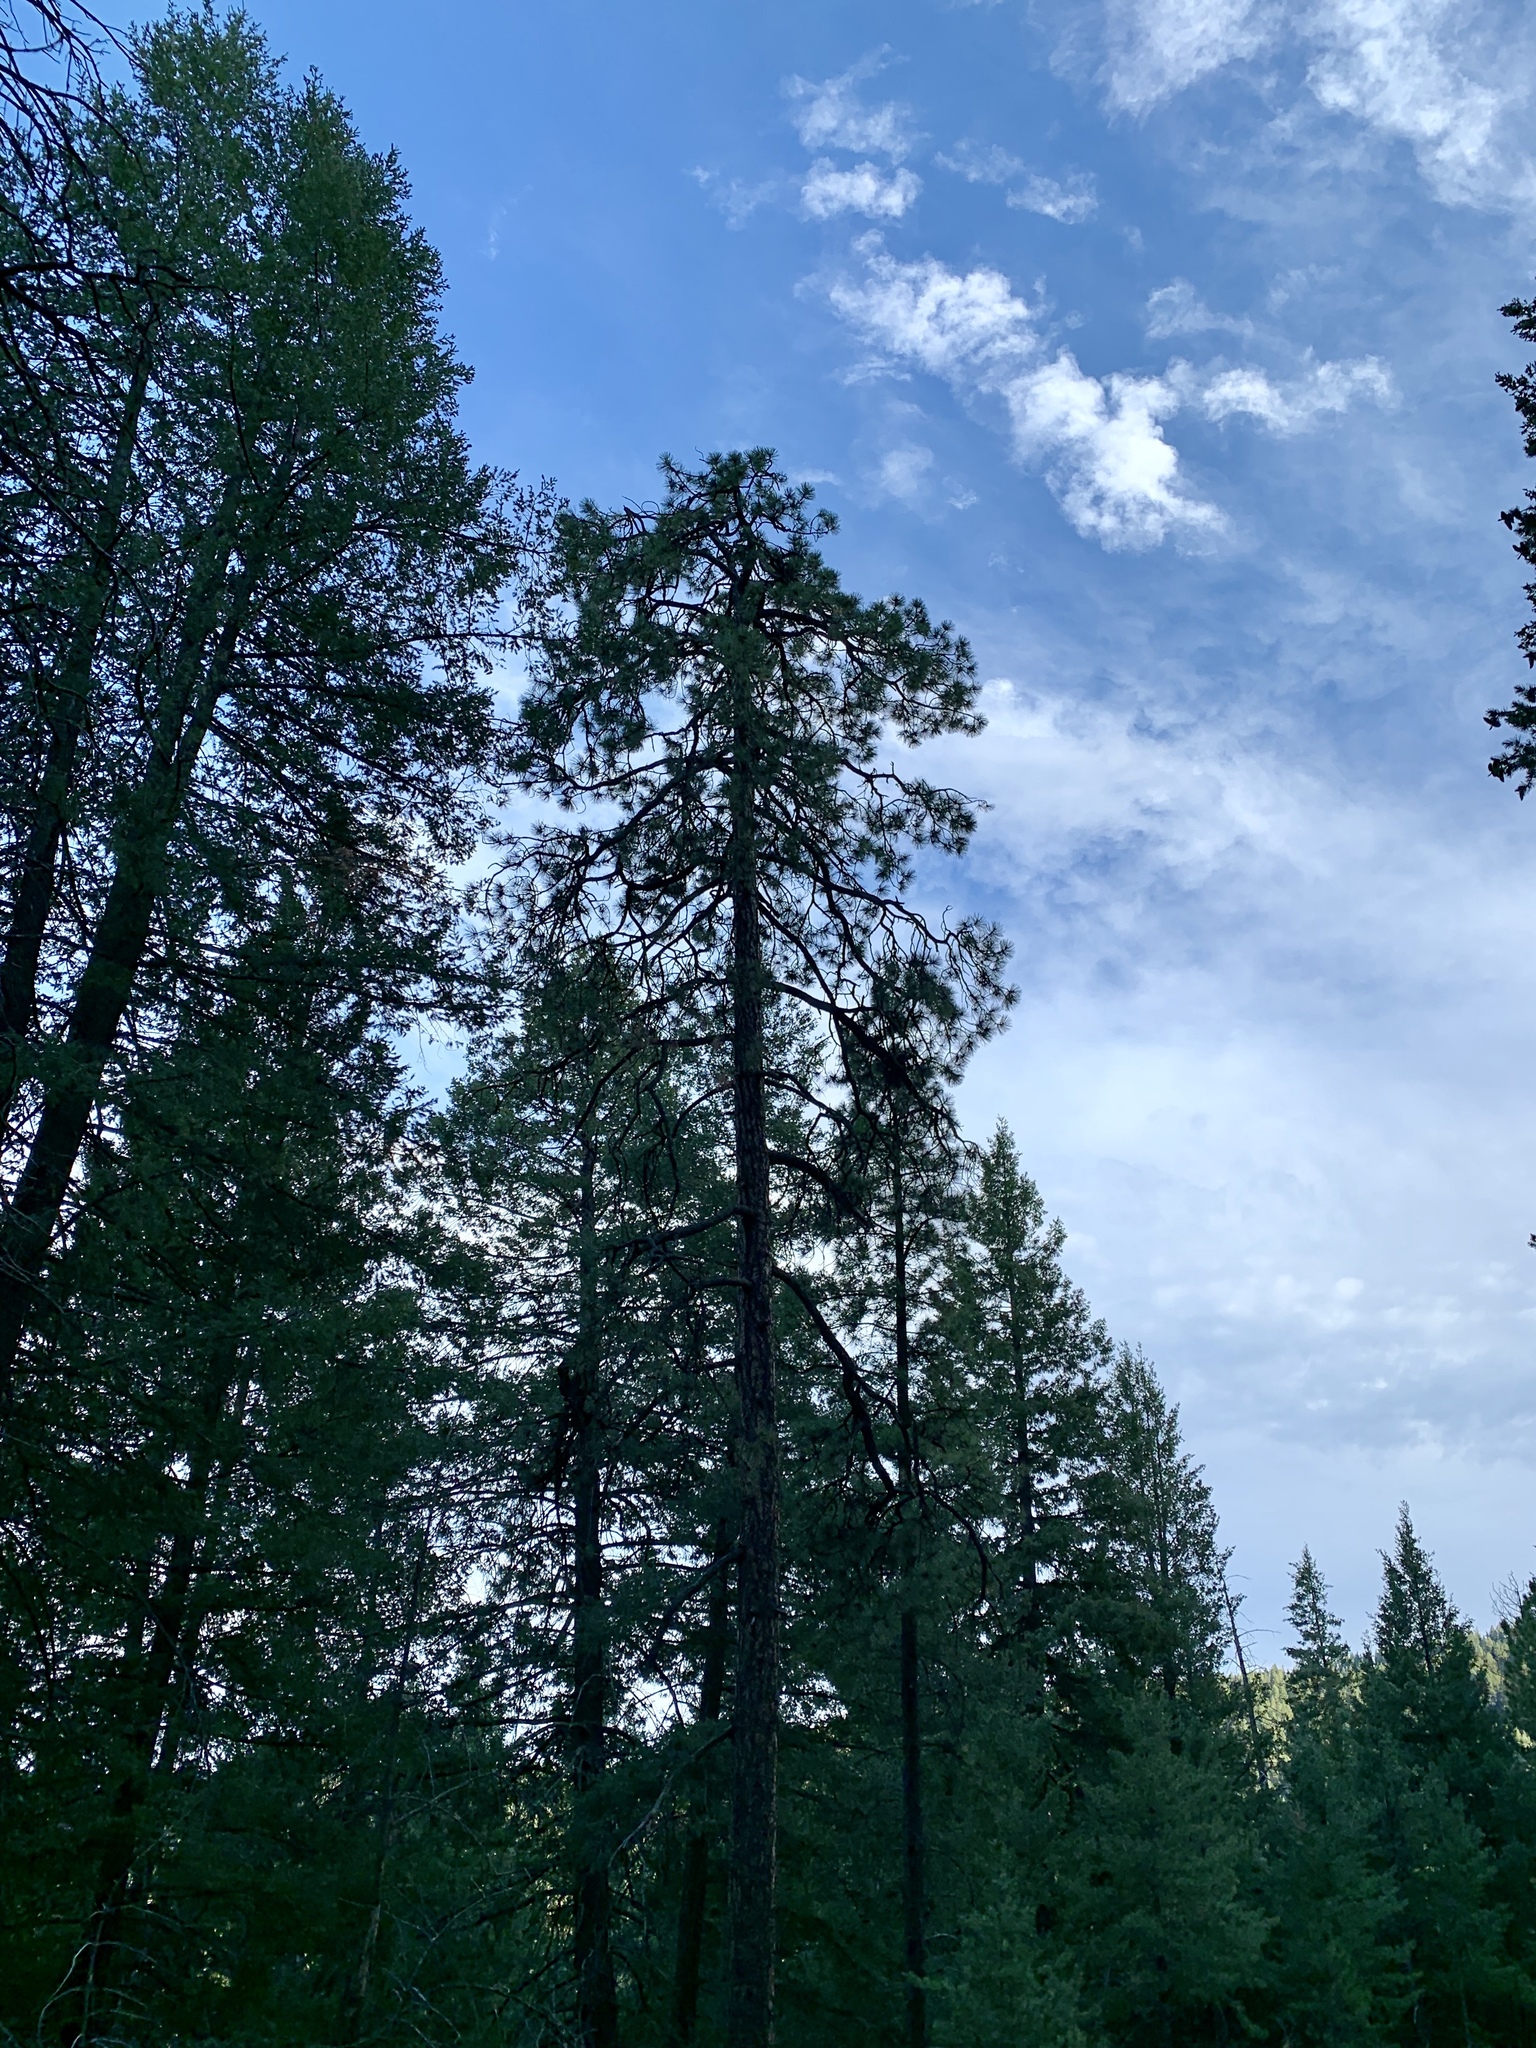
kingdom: Plantae
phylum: Tracheophyta
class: Pinopsida
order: Pinales
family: Pinaceae
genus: Pinus
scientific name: Pinus ponderosa
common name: Western yellow-pine
